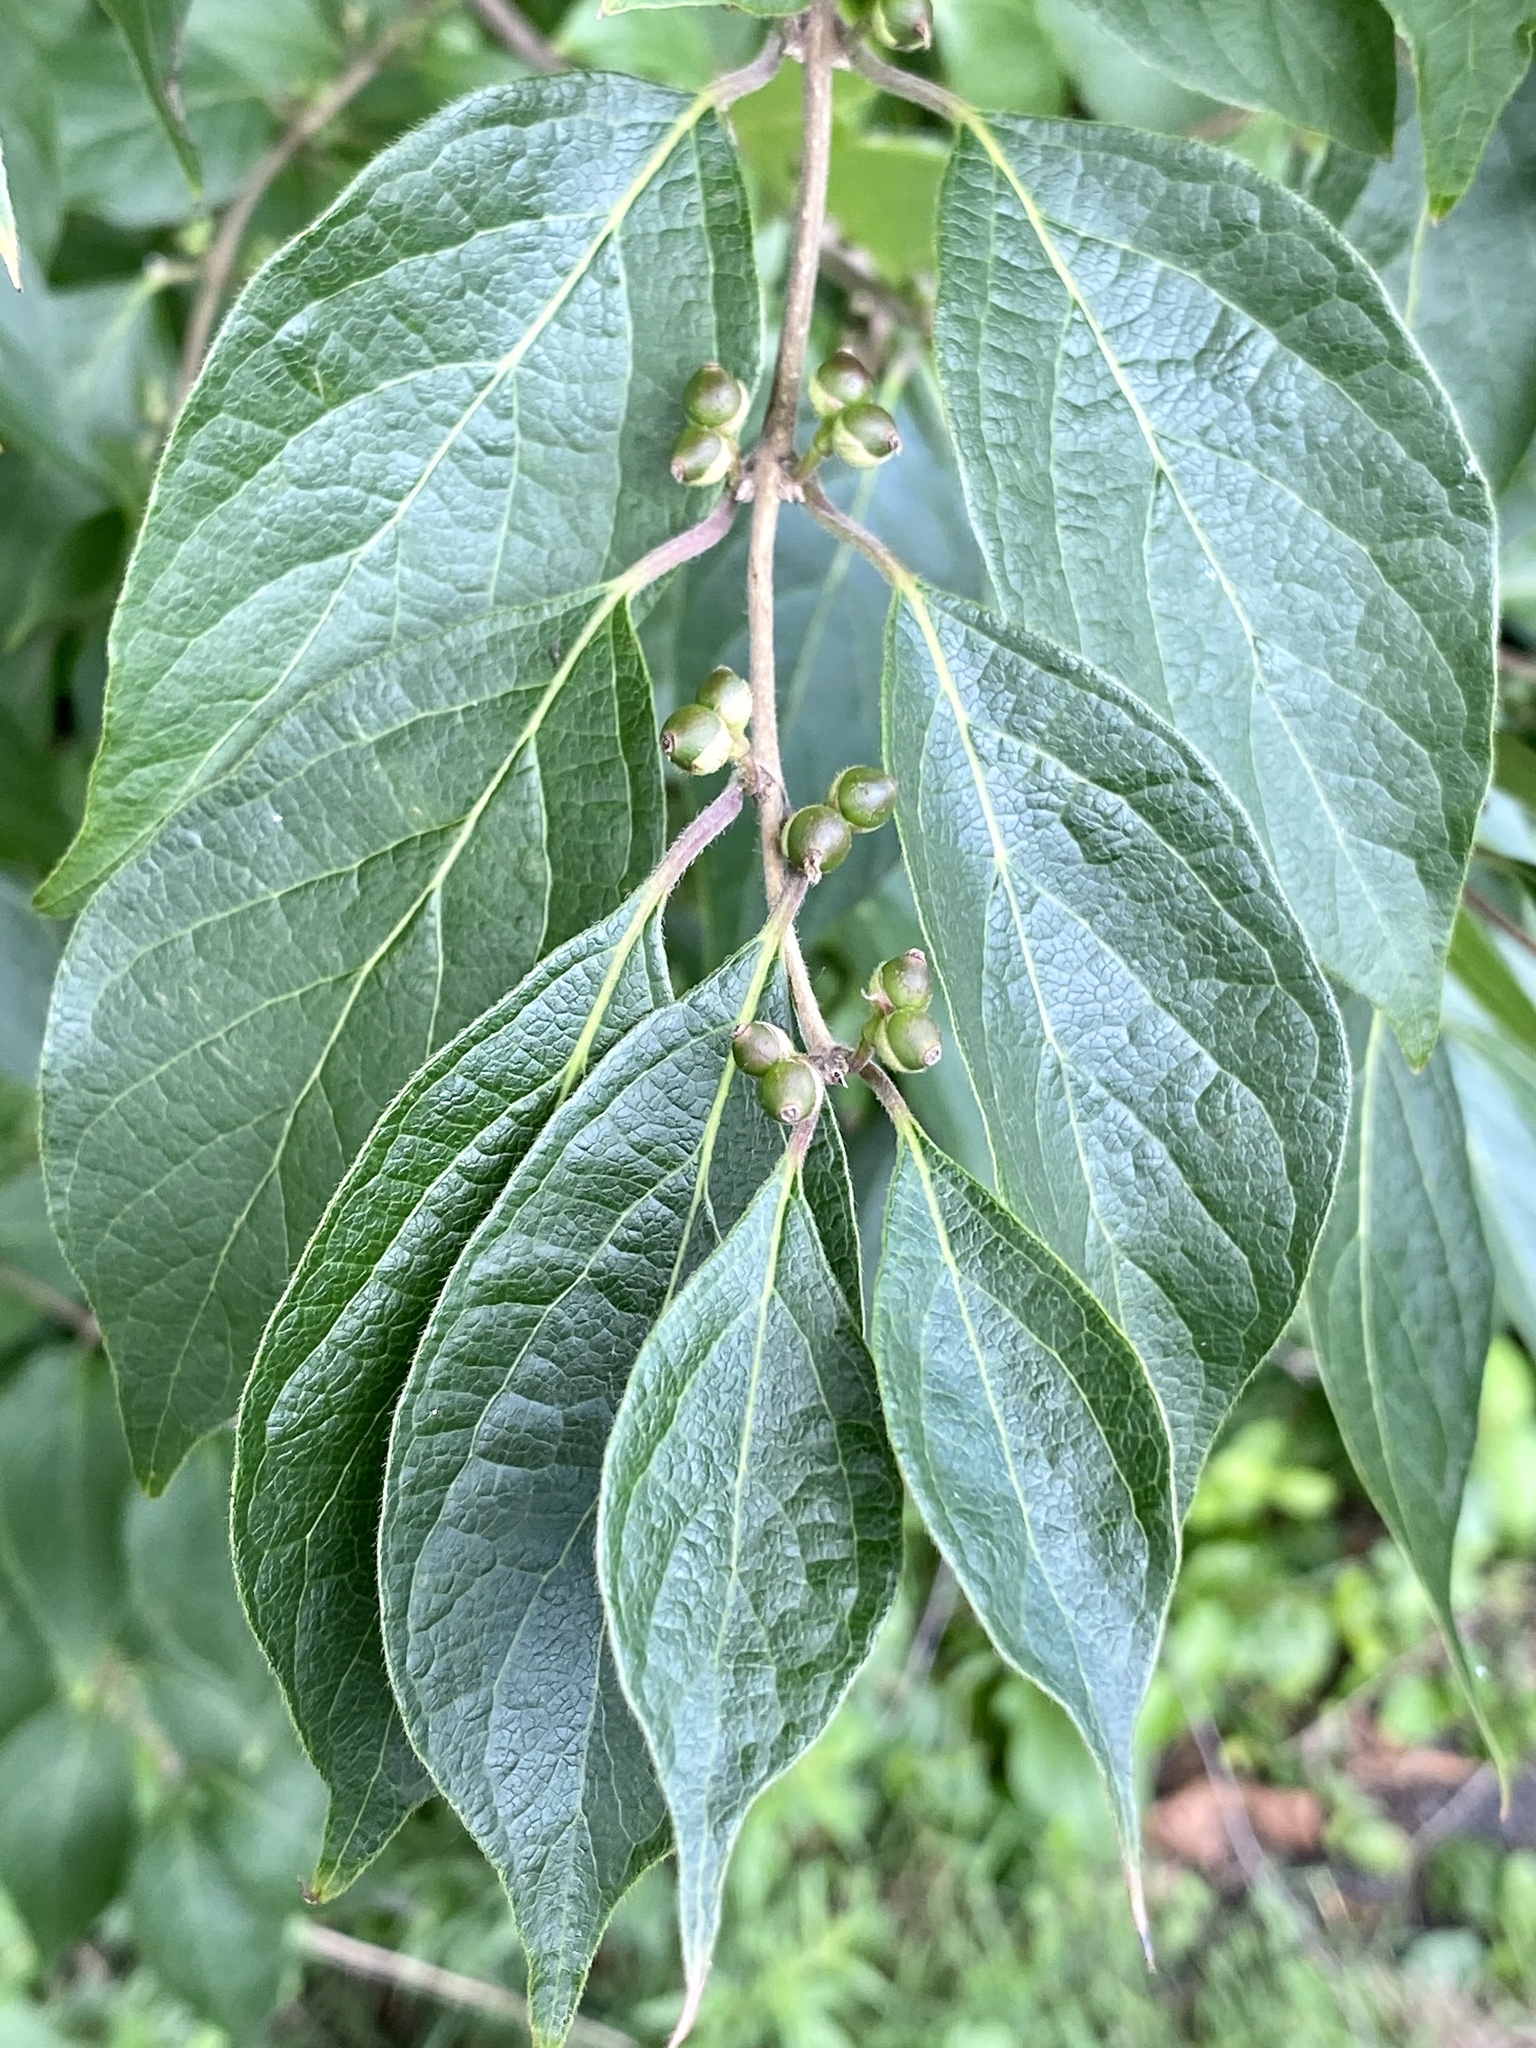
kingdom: Plantae
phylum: Tracheophyta
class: Magnoliopsida
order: Dipsacales
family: Caprifoliaceae
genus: Lonicera
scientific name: Lonicera maackii
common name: Amur honeysuckle
